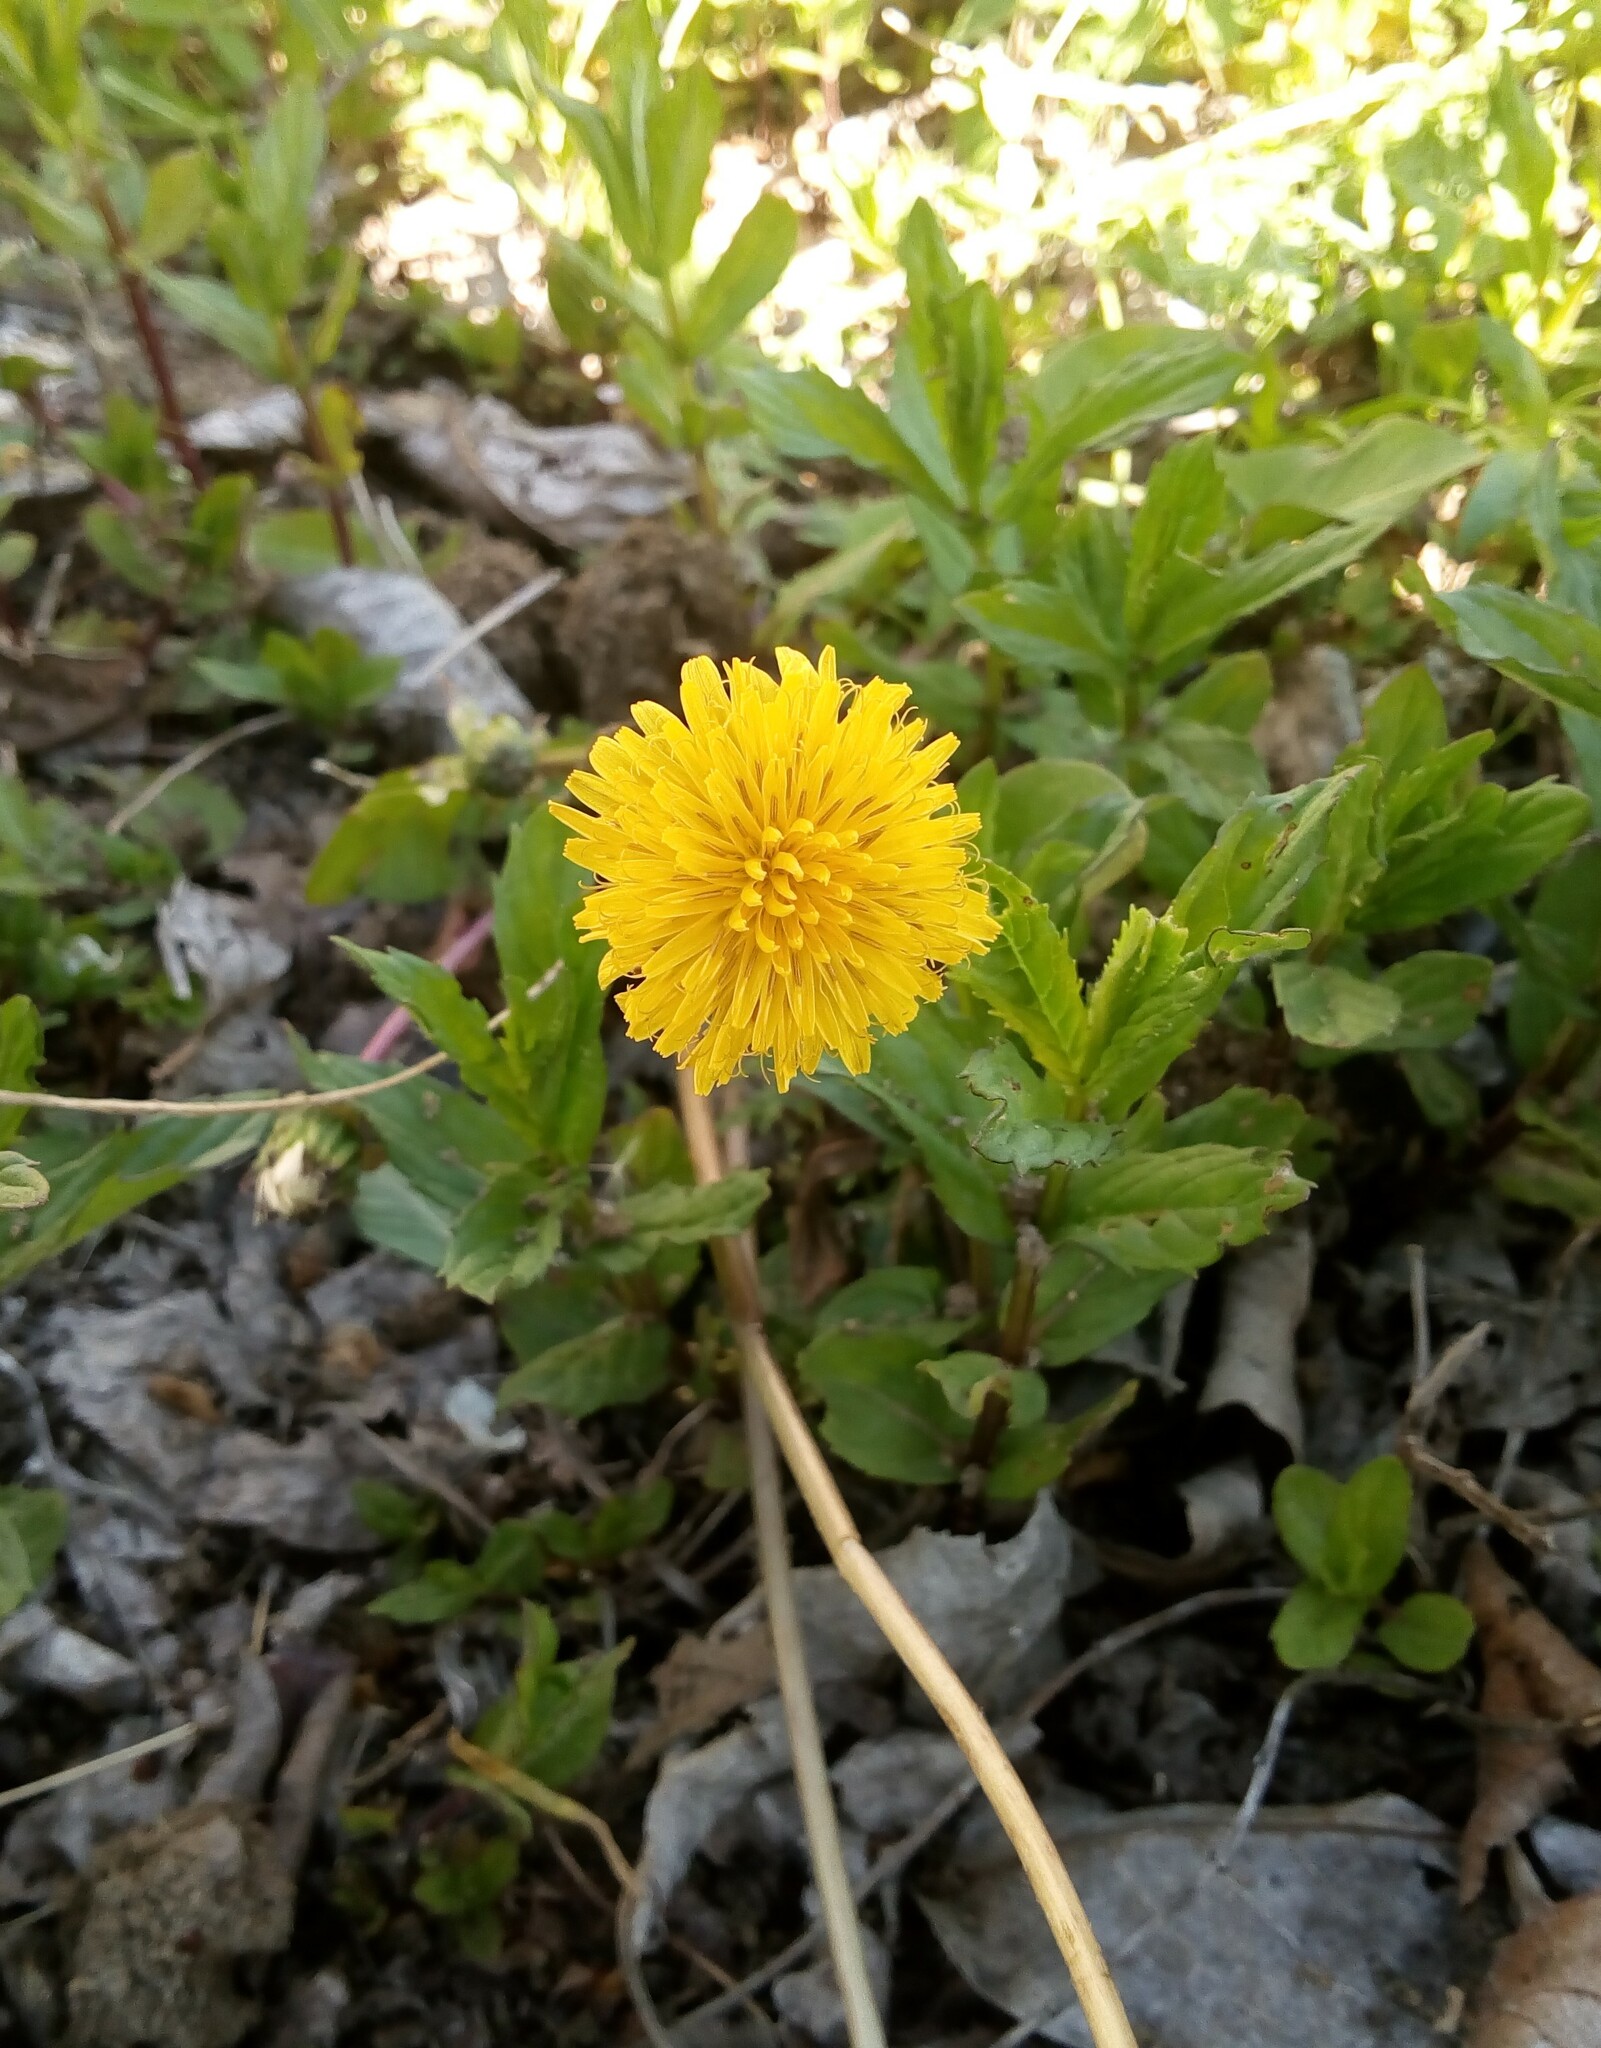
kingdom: Plantae
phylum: Tracheophyta
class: Magnoliopsida
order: Asterales
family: Asteraceae
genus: Taraxacum
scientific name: Taraxacum officinale
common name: Common dandelion
